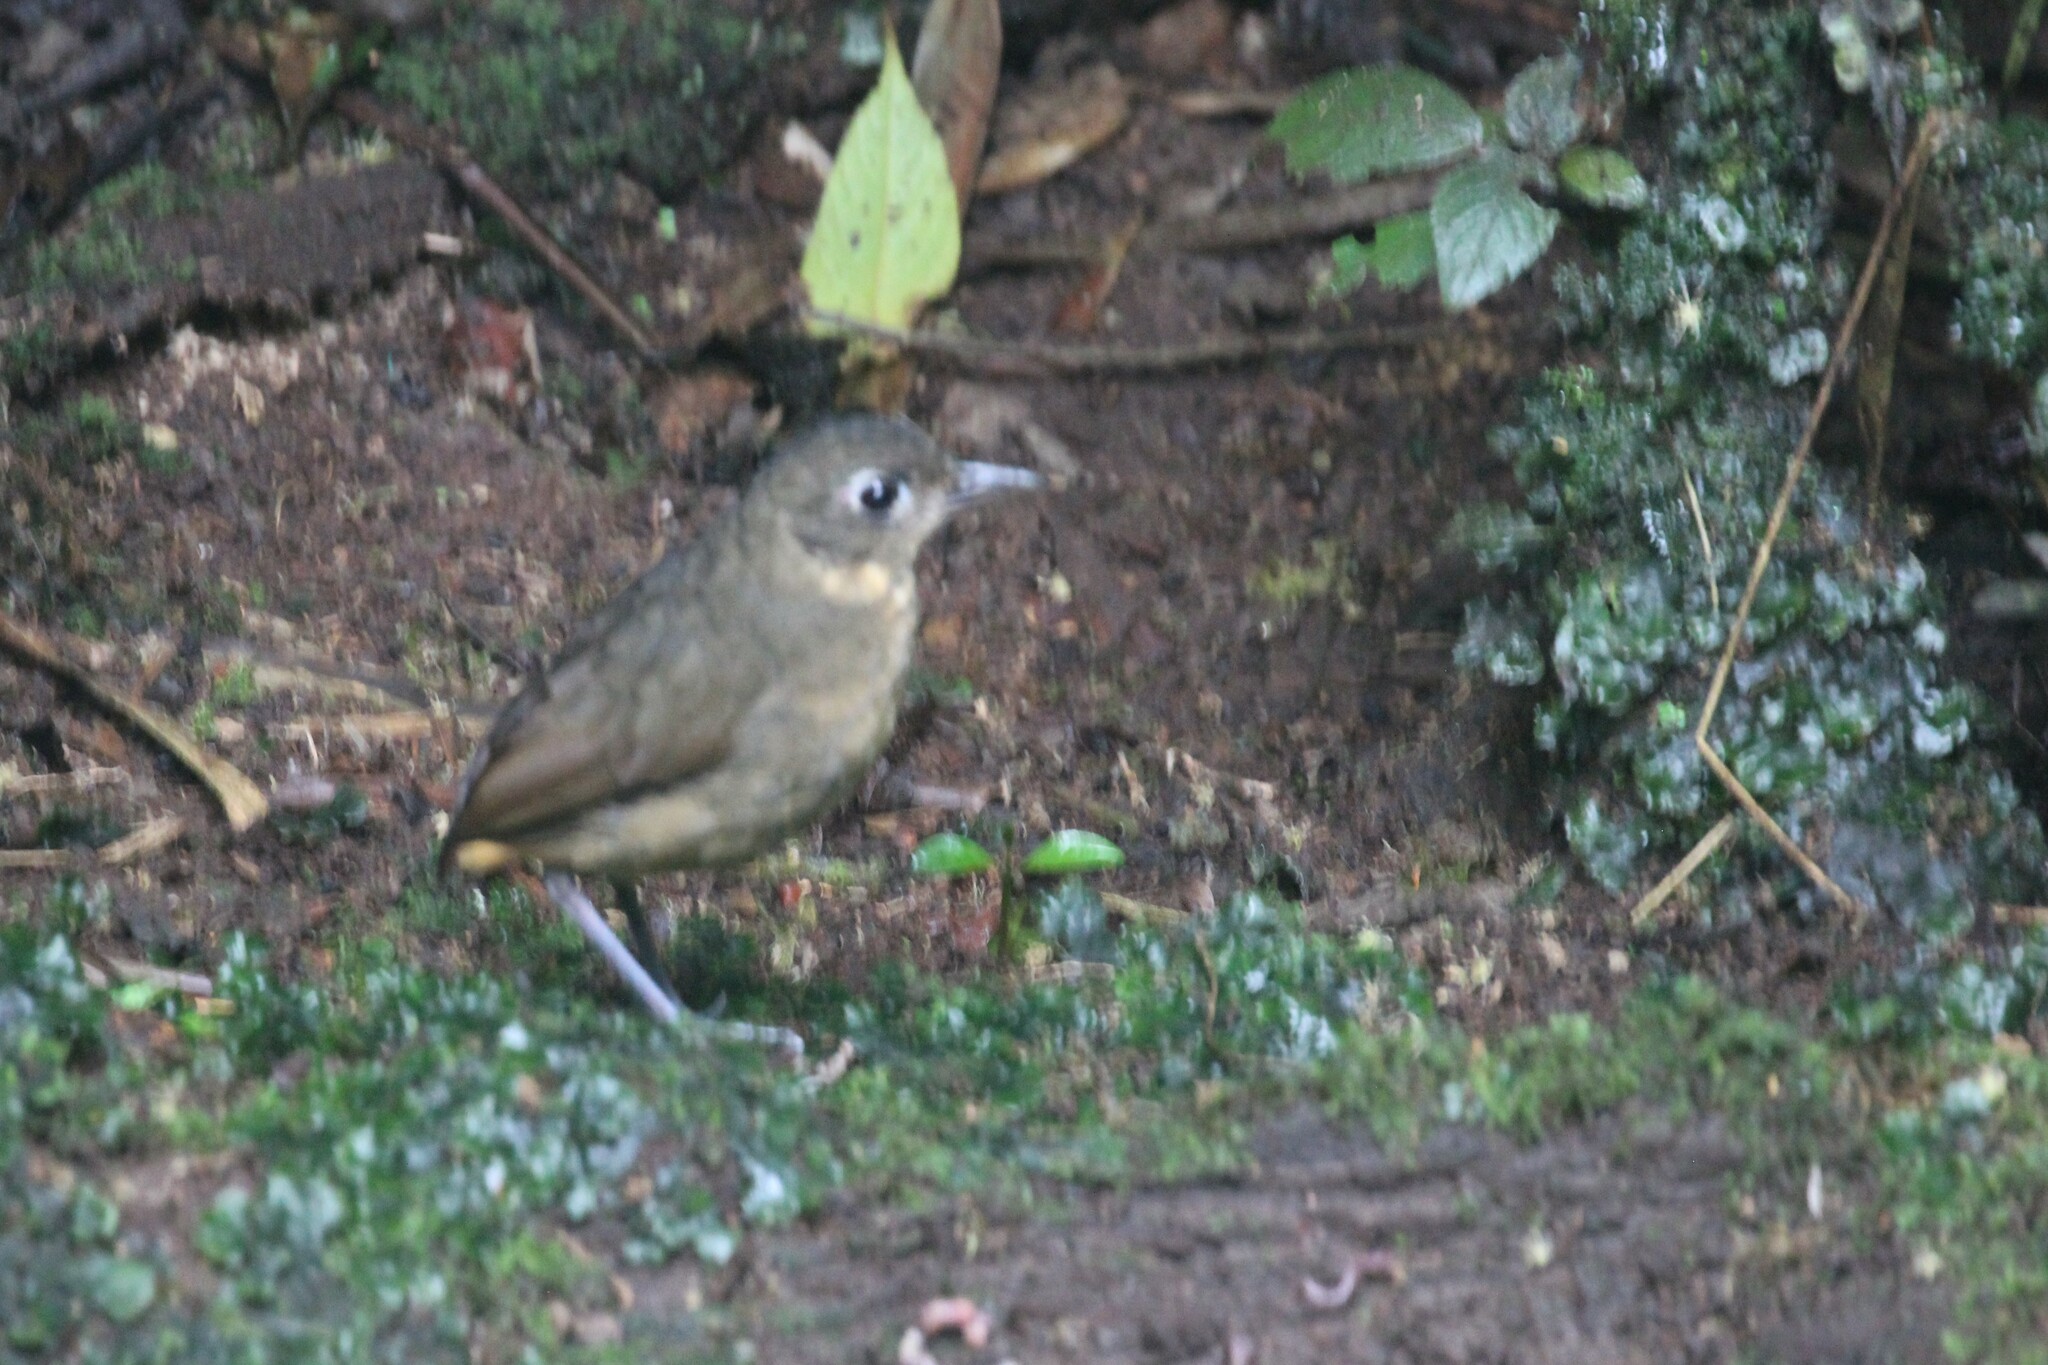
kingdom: Animalia
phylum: Chordata
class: Aves
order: Passeriformes
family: Grallariidae
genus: Grallaria
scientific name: Grallaria haplonota
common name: Plain-backed antpitta
